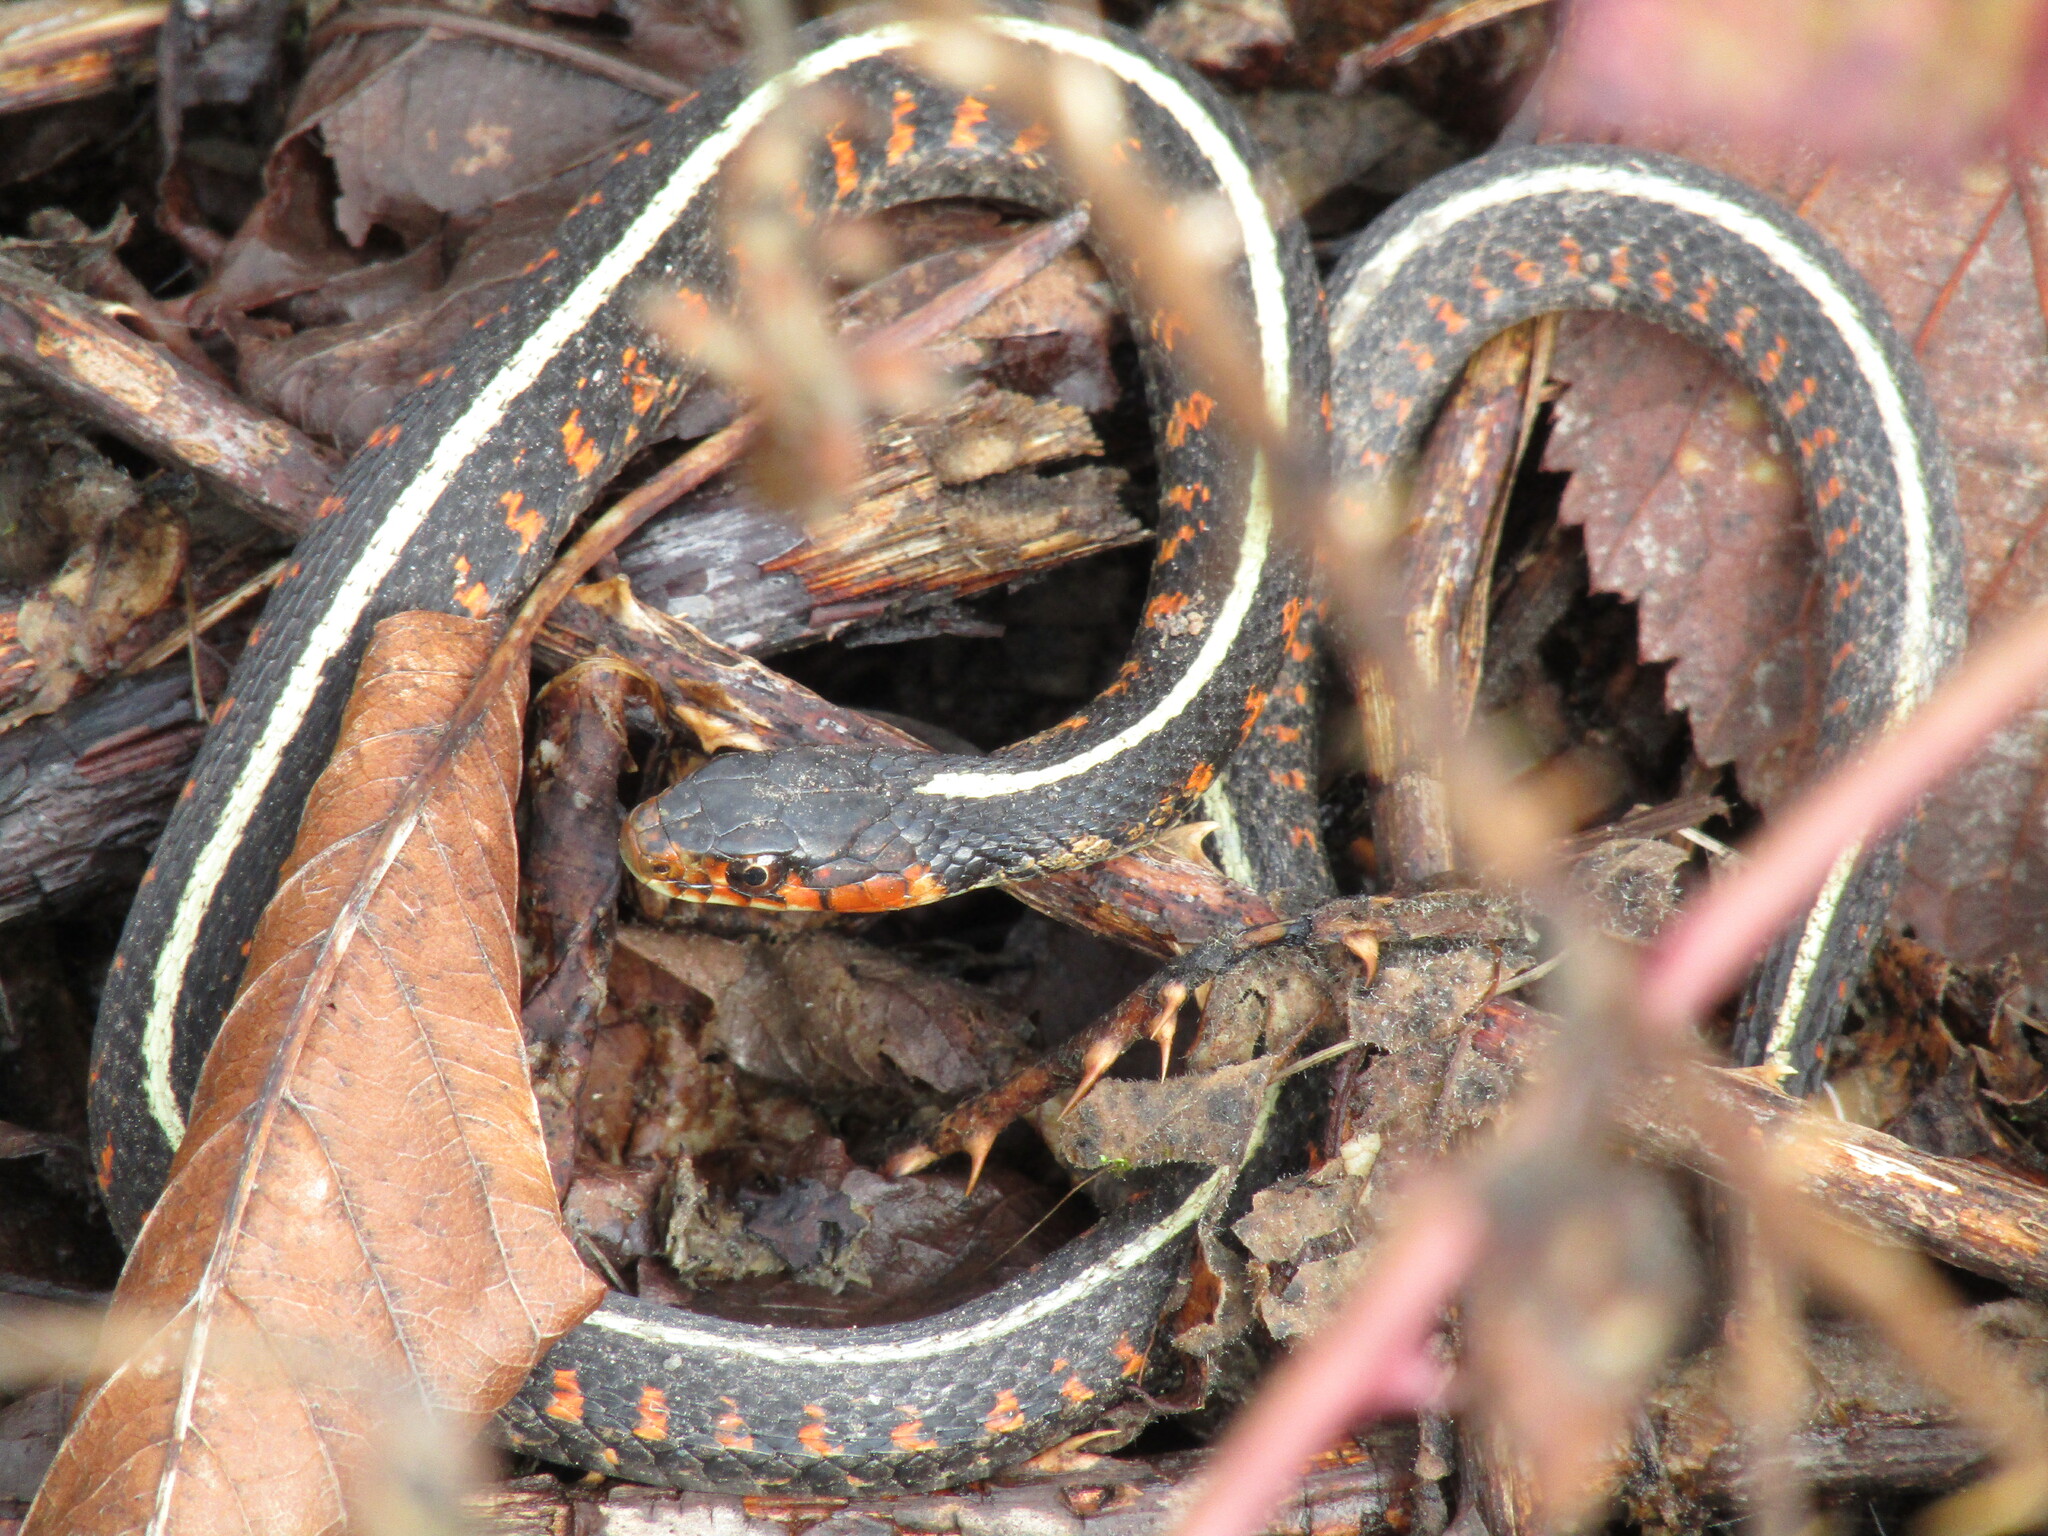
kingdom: Animalia
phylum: Chordata
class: Squamata
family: Colubridae
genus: Thamnophis
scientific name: Thamnophis sirtalis
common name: Common garter snake
